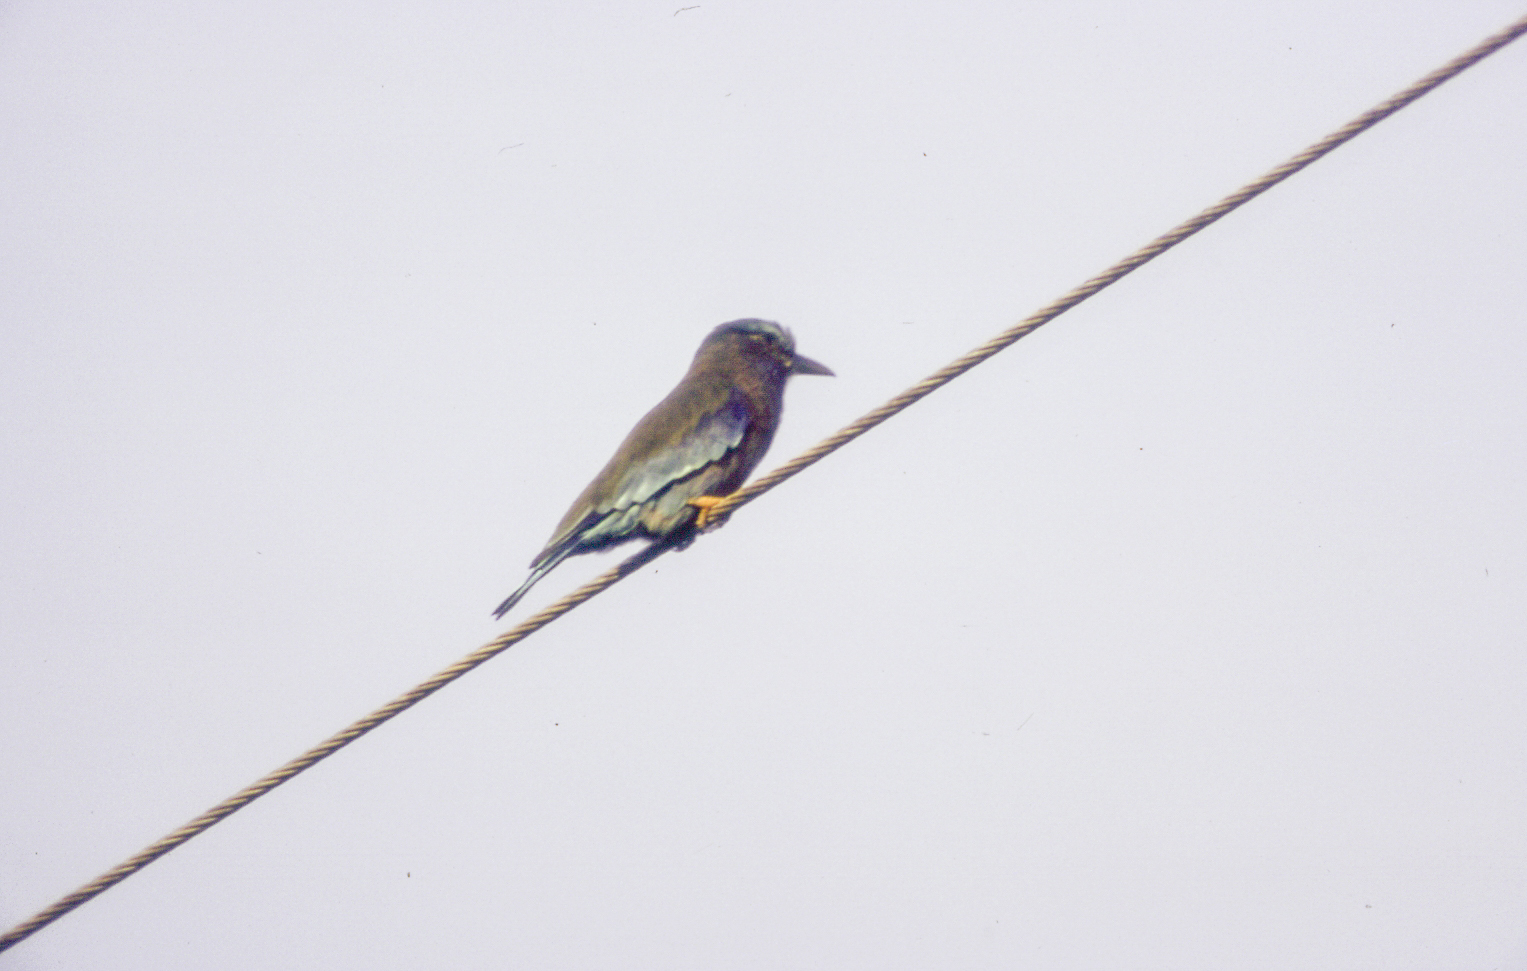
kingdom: Animalia
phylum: Chordata
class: Aves
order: Coraciiformes
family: Coraciidae
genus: Coracias
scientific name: Coracias affinis
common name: Indochinese roller
